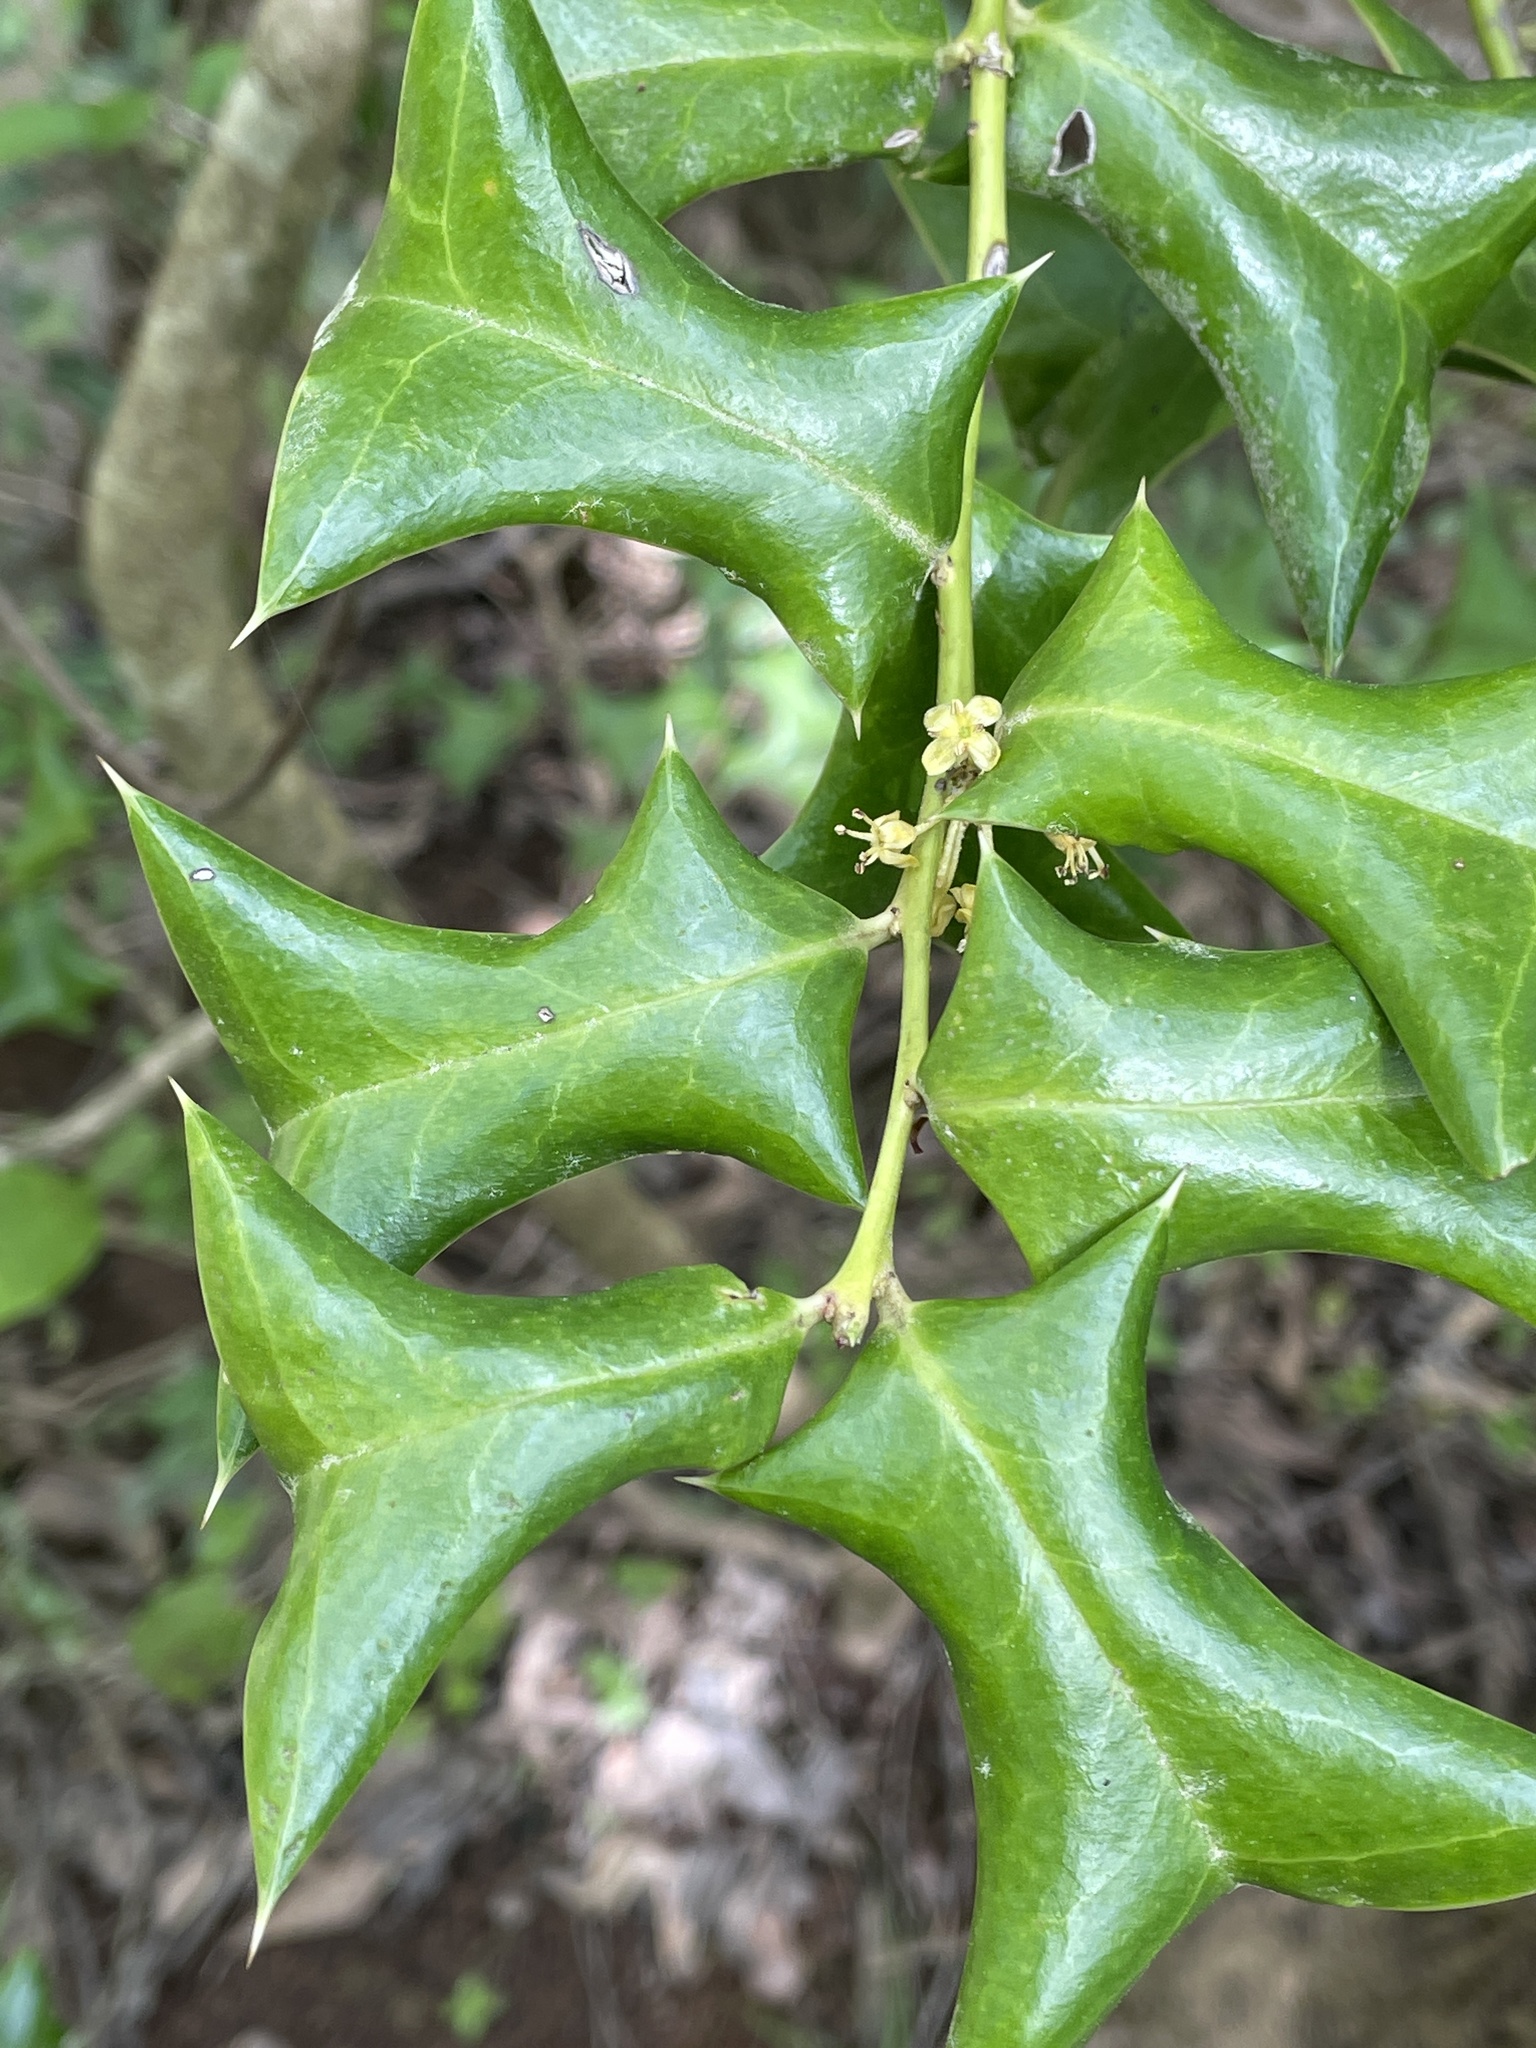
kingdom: Plantae
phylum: Tracheophyta
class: Magnoliopsida
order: Aquifoliales
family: Aquifoliaceae
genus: Ilex
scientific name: Ilex cornuta
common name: Chinese holly
